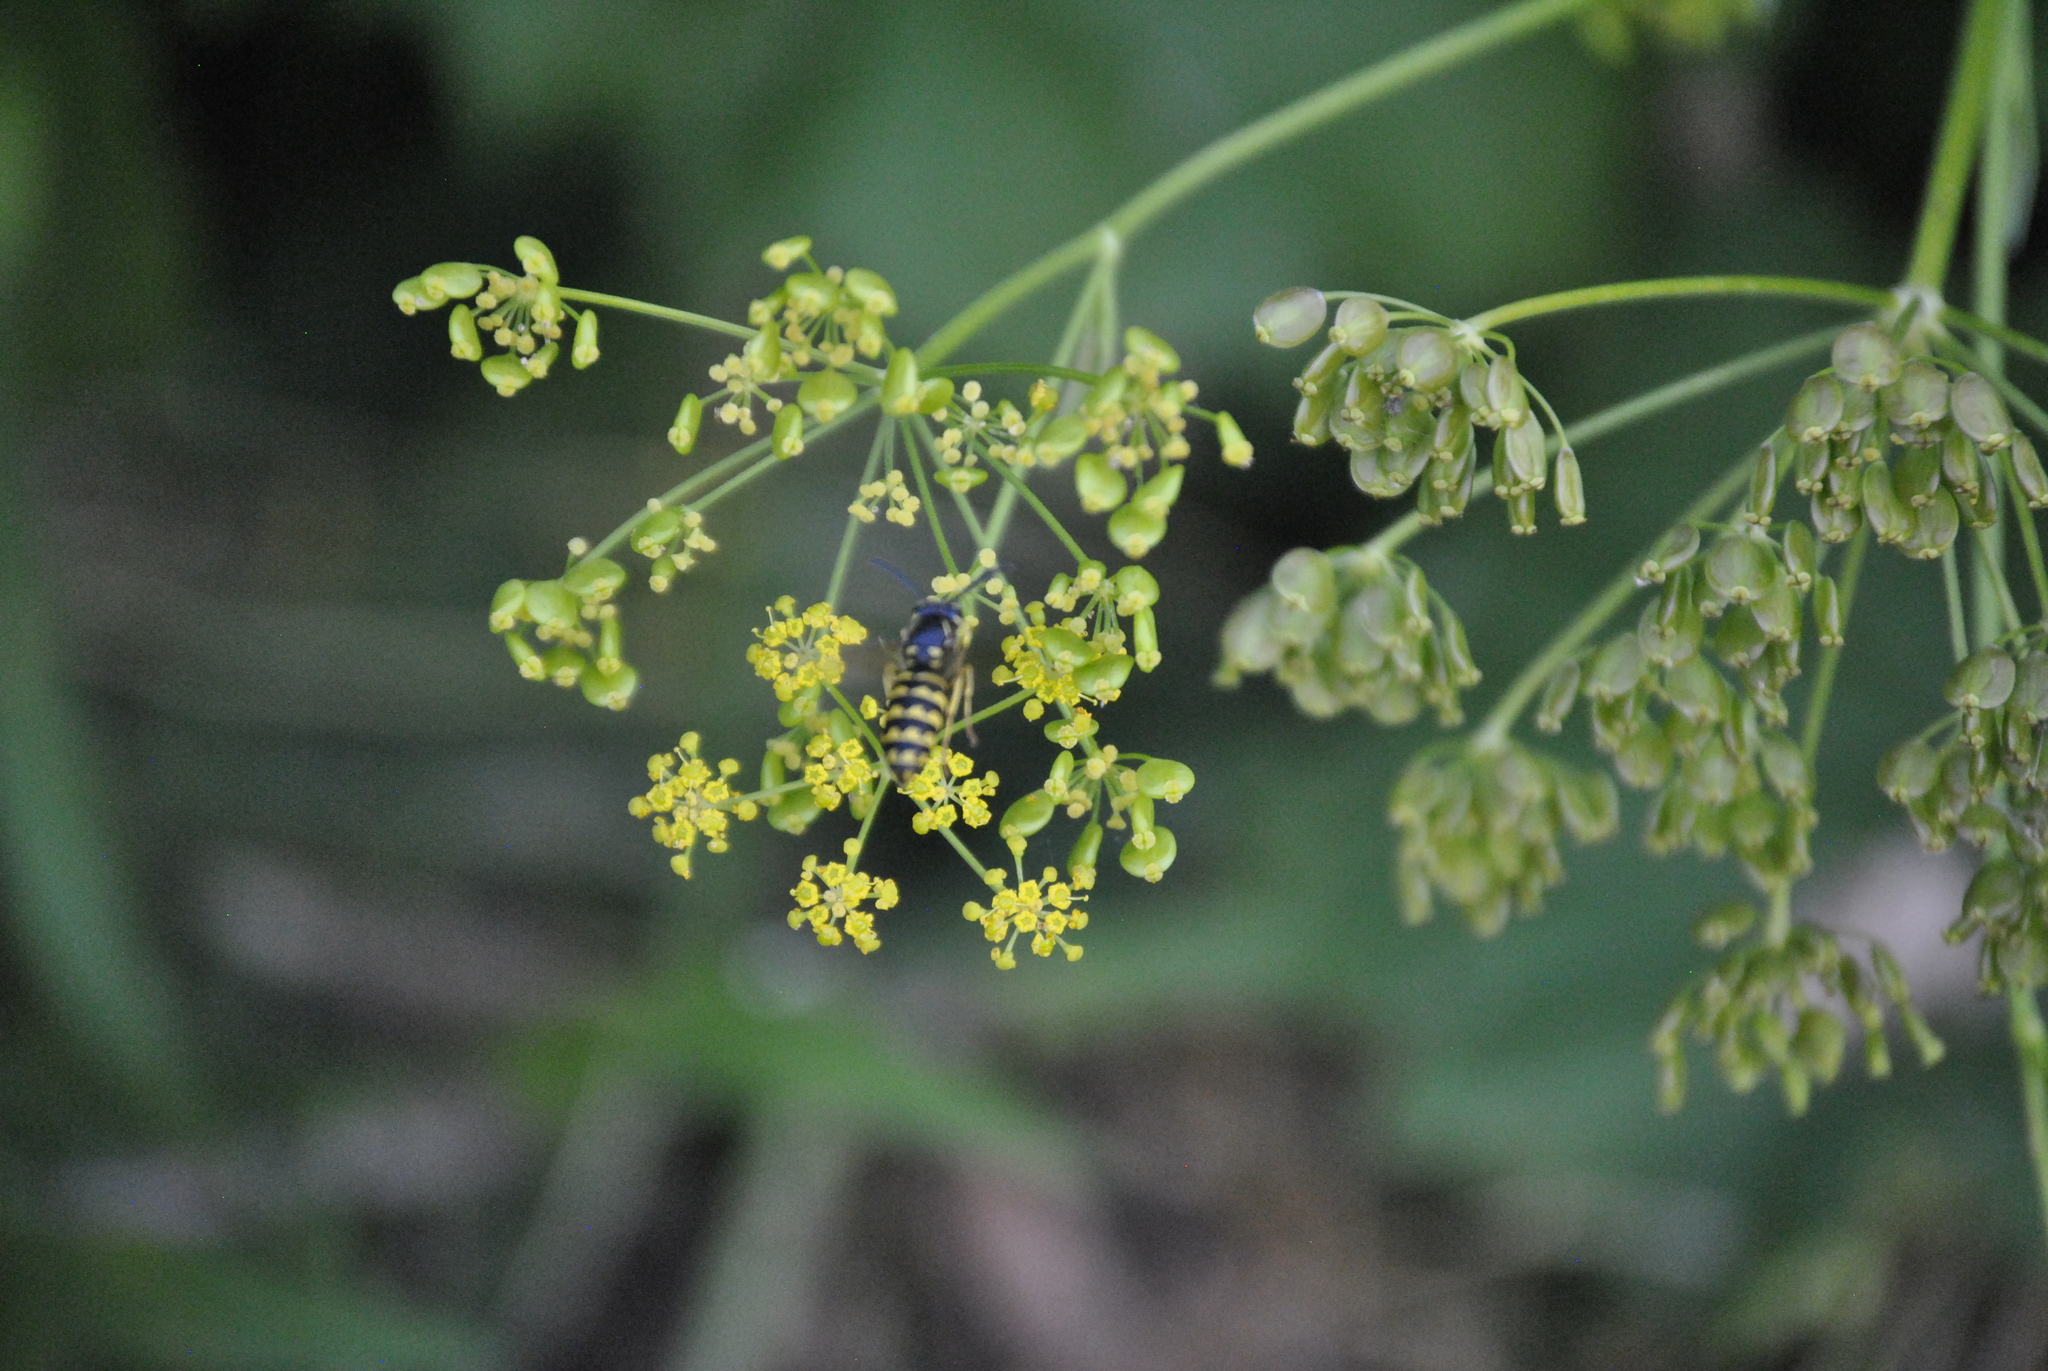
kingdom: Animalia
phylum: Arthropoda
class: Insecta
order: Hymenoptera
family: Vespidae
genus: Dolichovespula
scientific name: Dolichovespula arenaria
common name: Aerial yellowjacket
